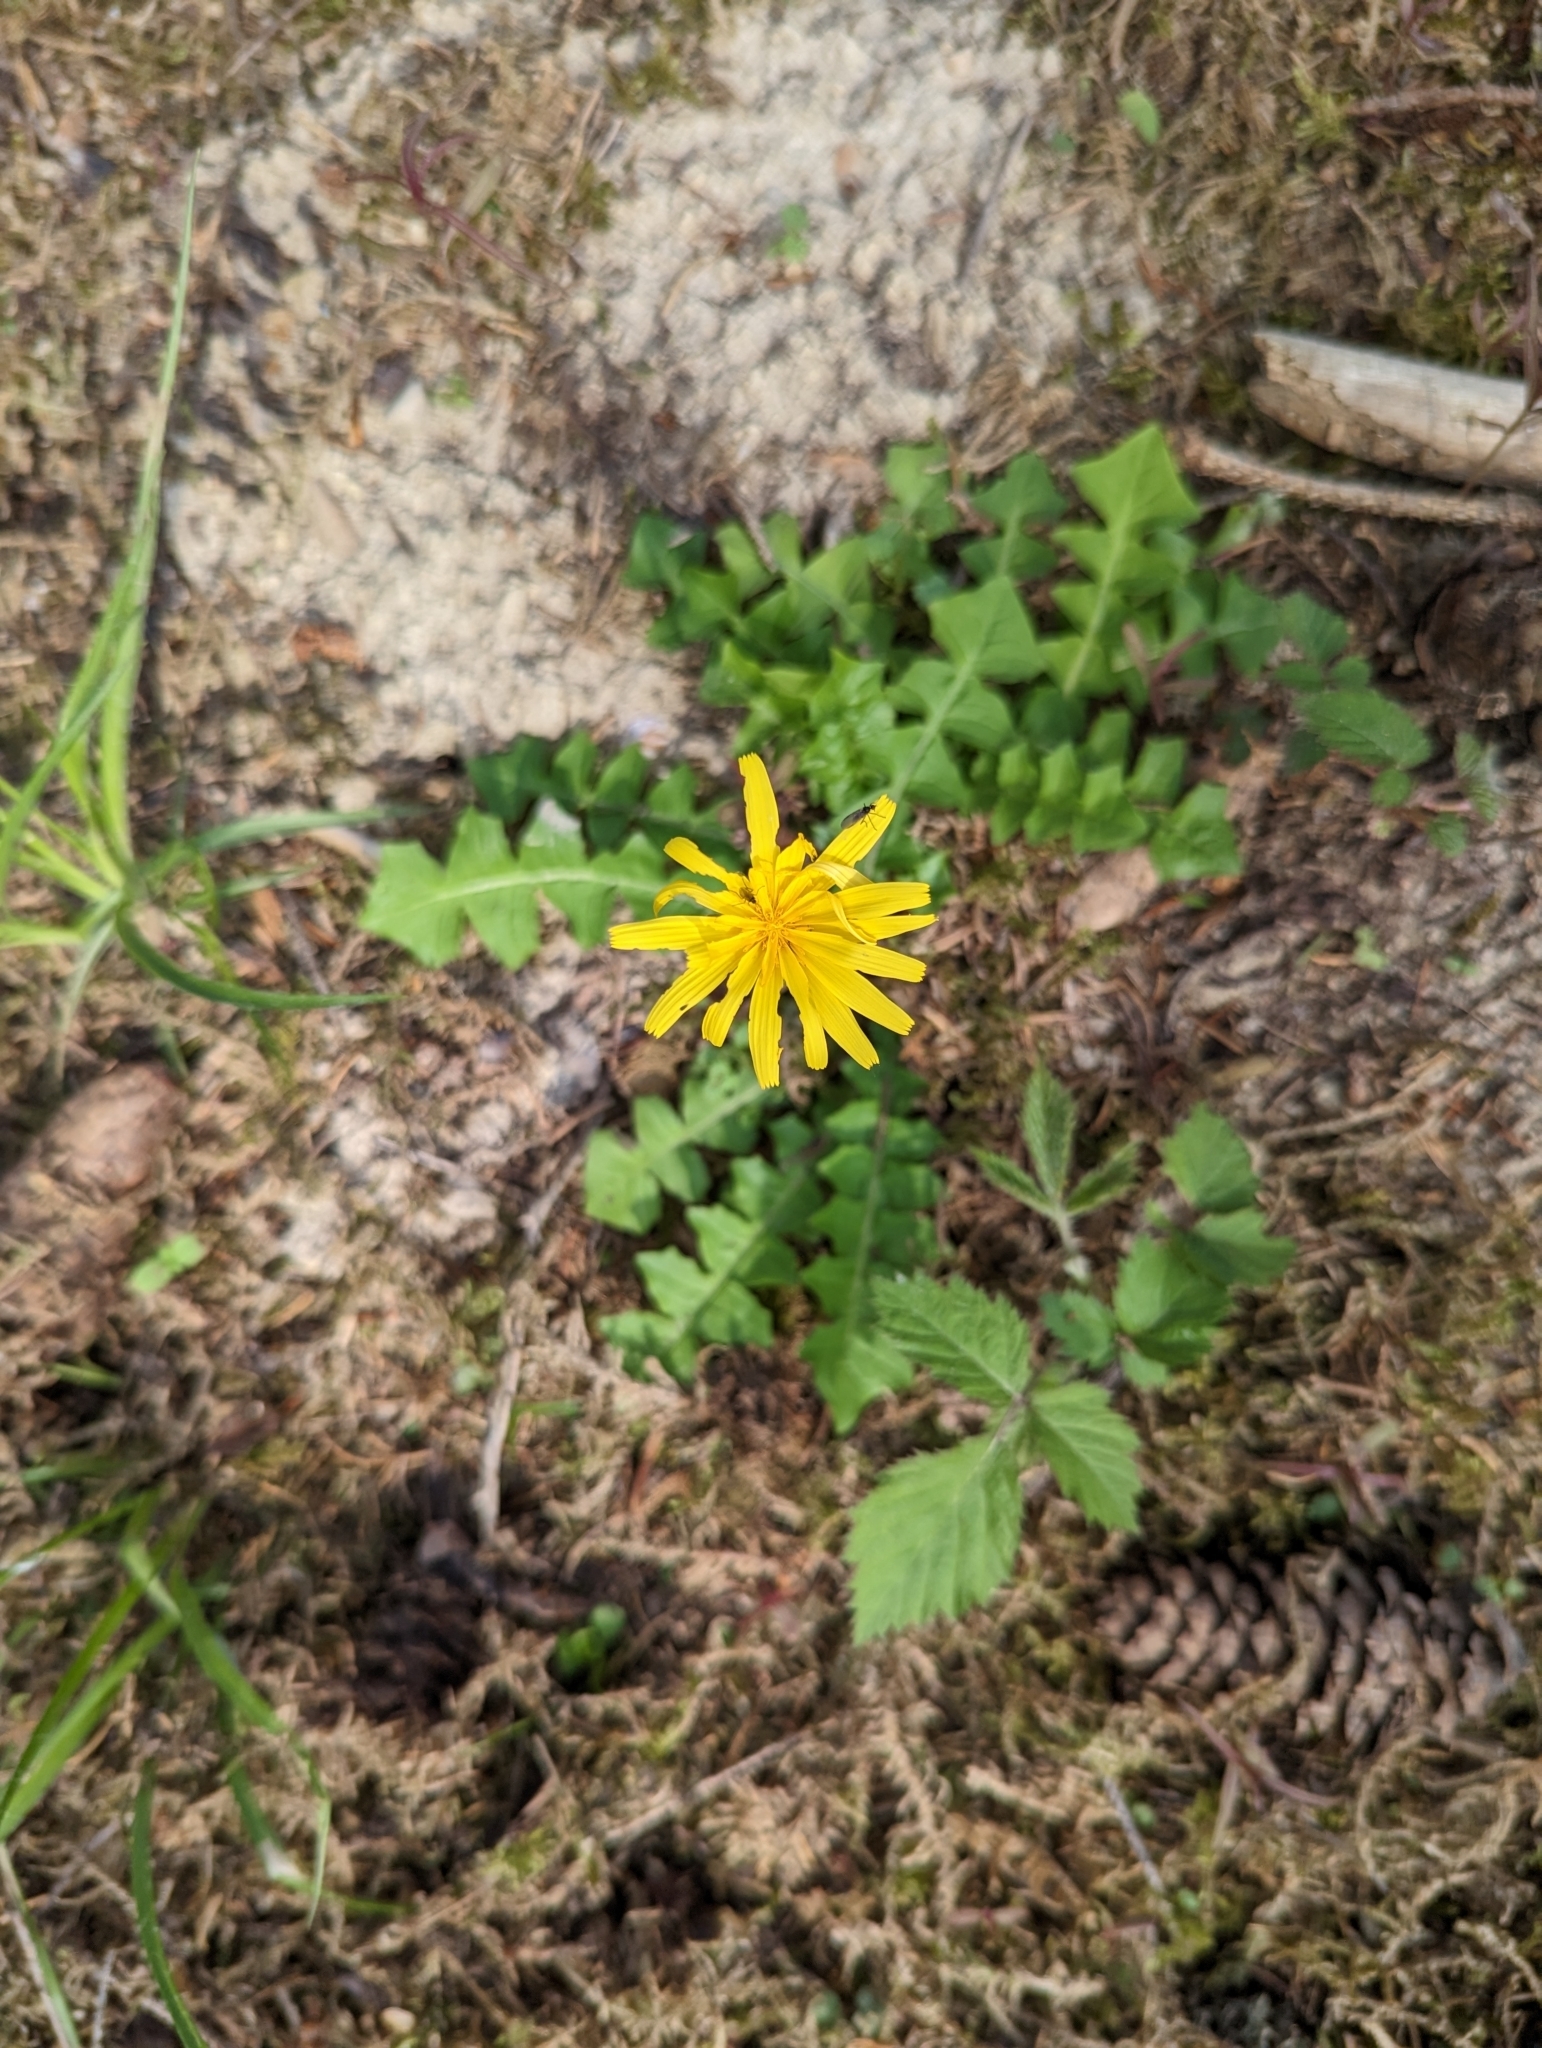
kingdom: Plantae
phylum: Tracheophyta
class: Magnoliopsida
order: Asterales
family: Asteraceae
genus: Aposeris
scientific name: Aposeris foetida
